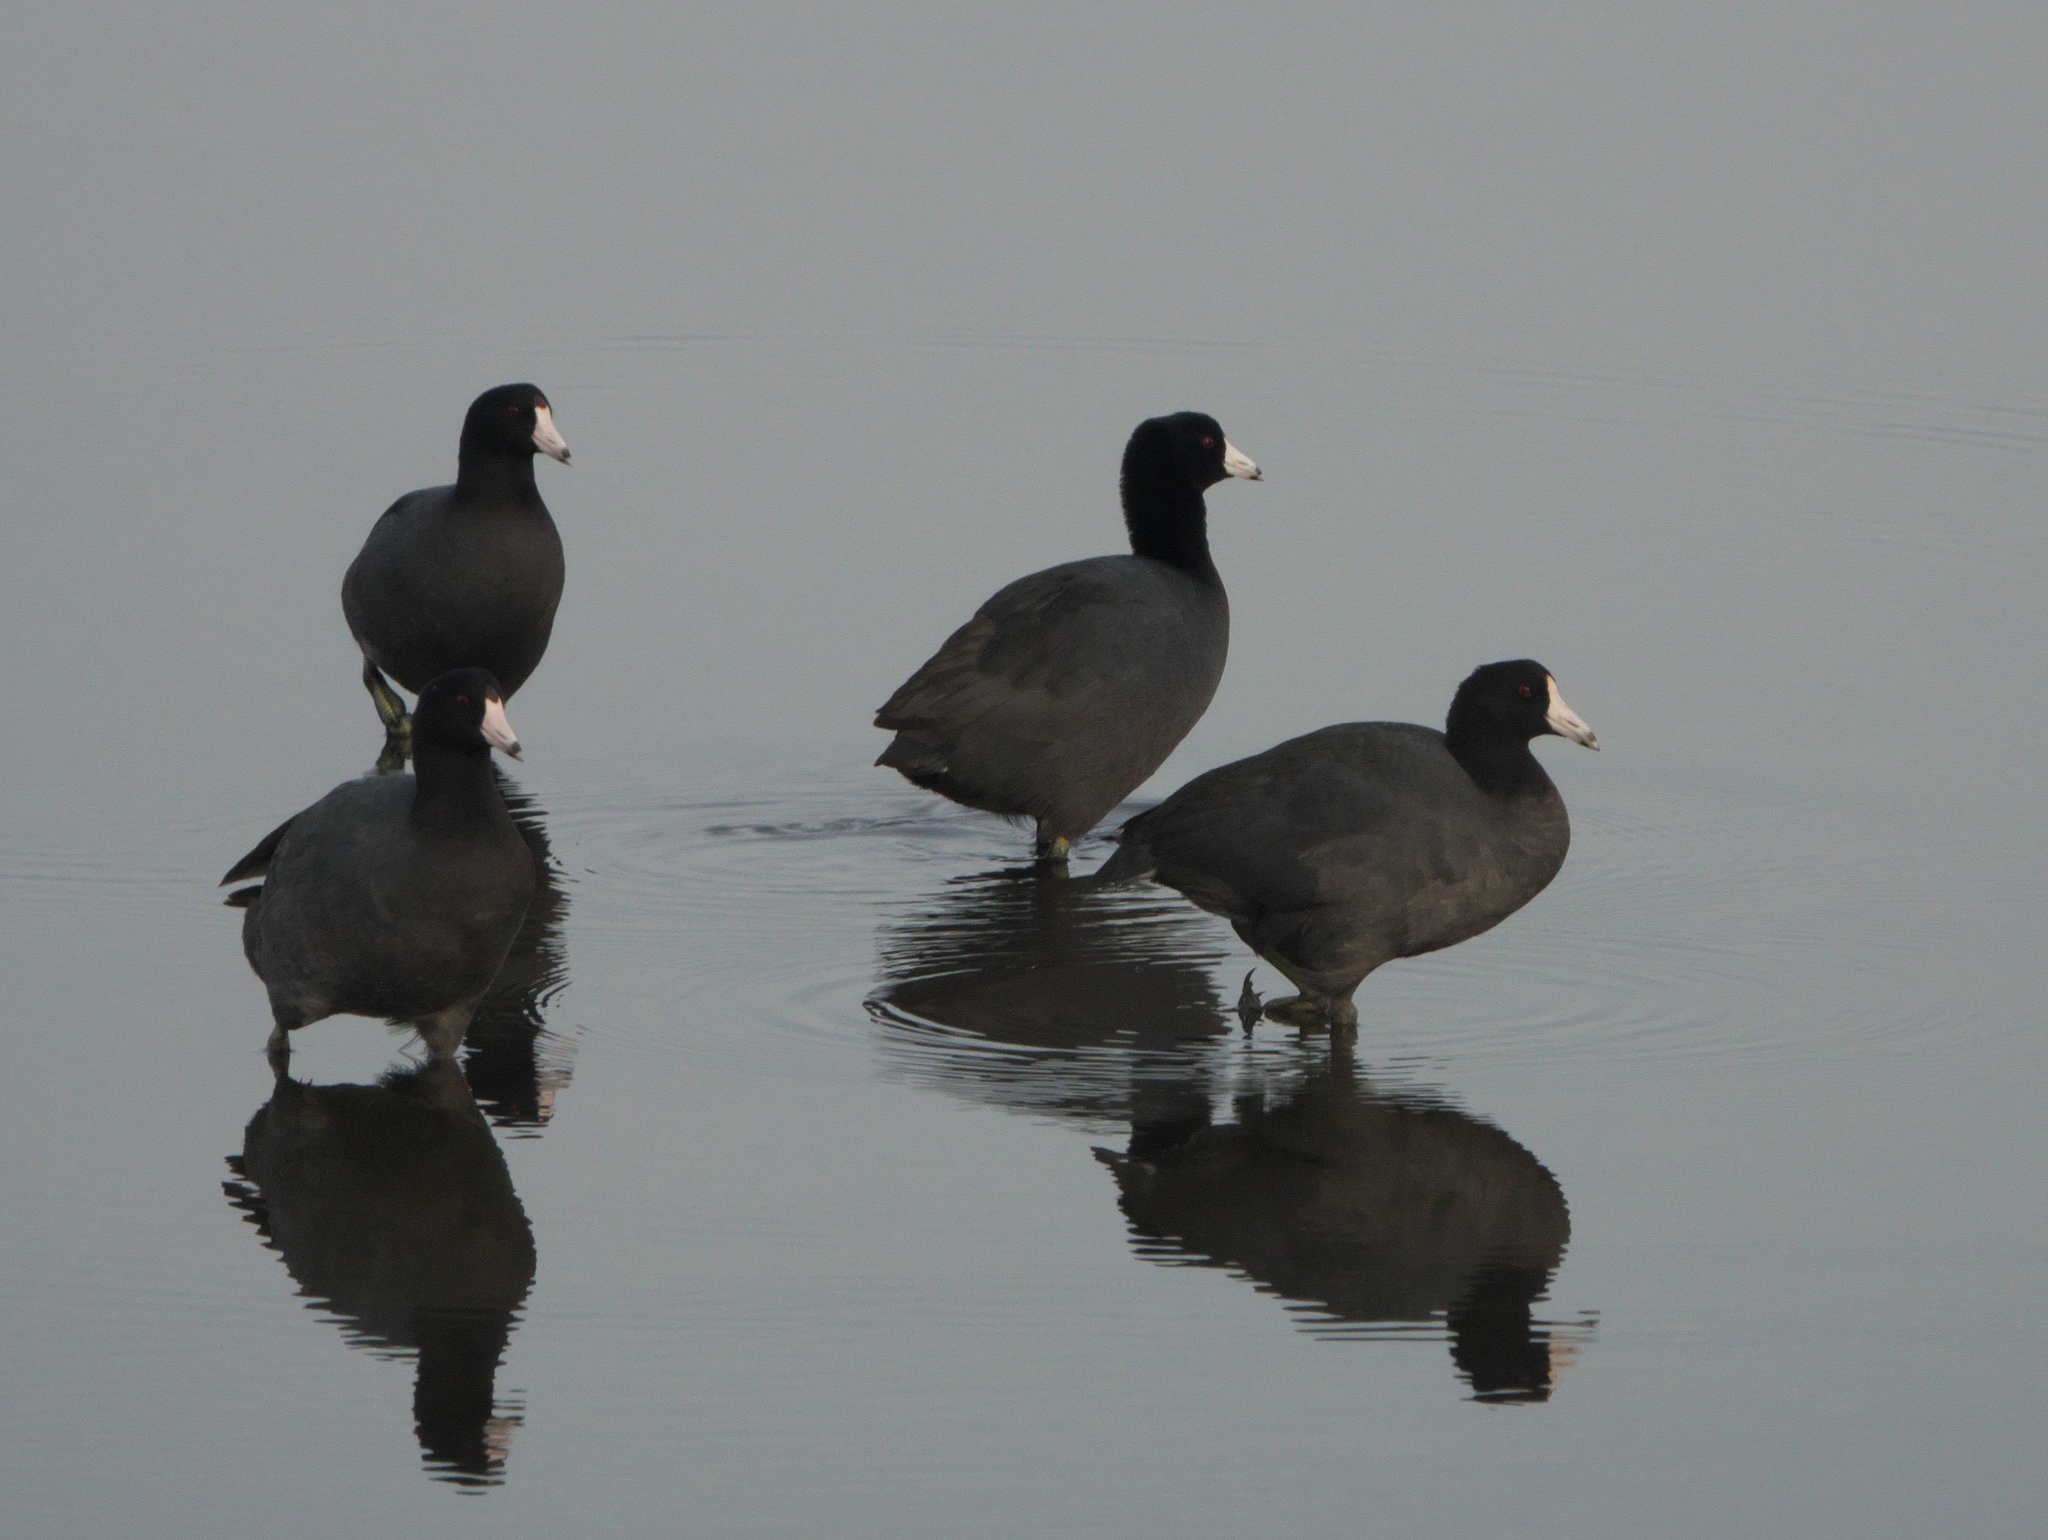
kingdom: Animalia
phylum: Chordata
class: Aves
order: Gruiformes
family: Rallidae
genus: Fulica
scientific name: Fulica americana
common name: American coot
